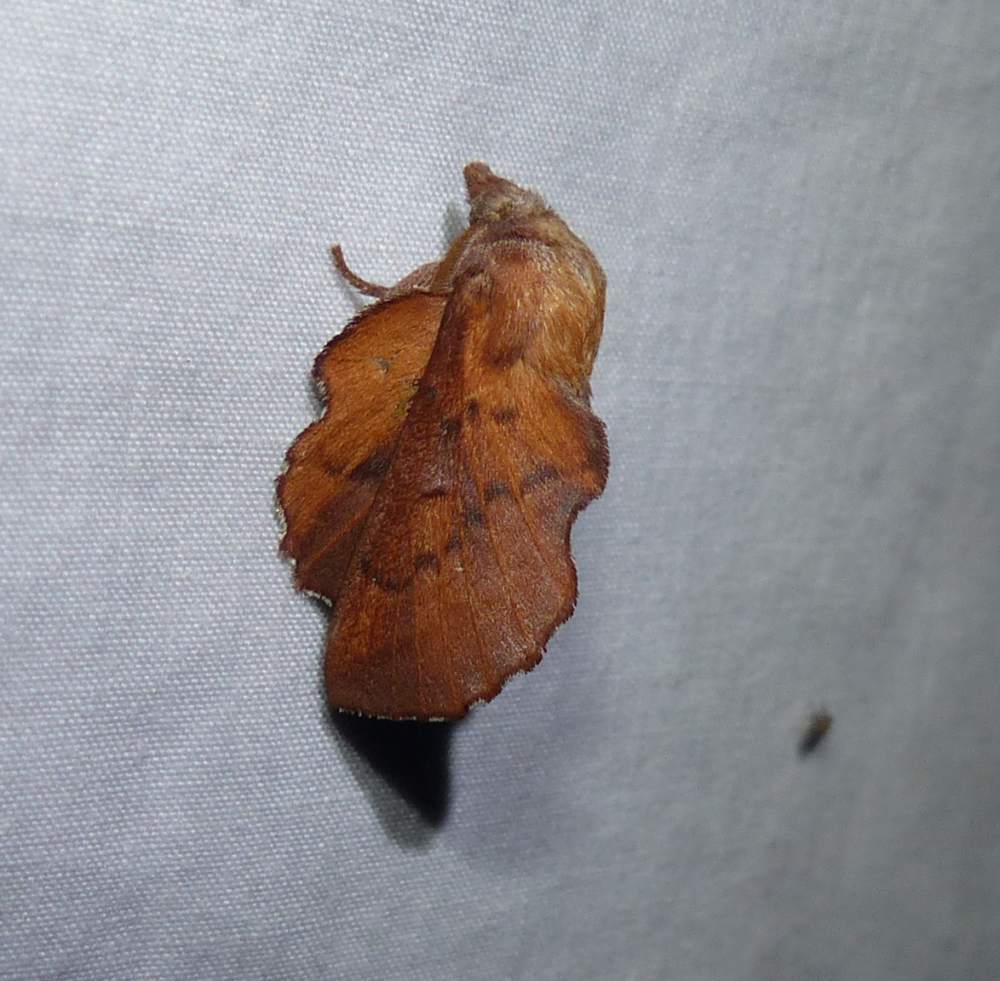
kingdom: Animalia
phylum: Arthropoda
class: Insecta
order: Lepidoptera
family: Lasiocampidae
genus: Phyllodesma
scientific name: Phyllodesma americana
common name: American lappet moth
